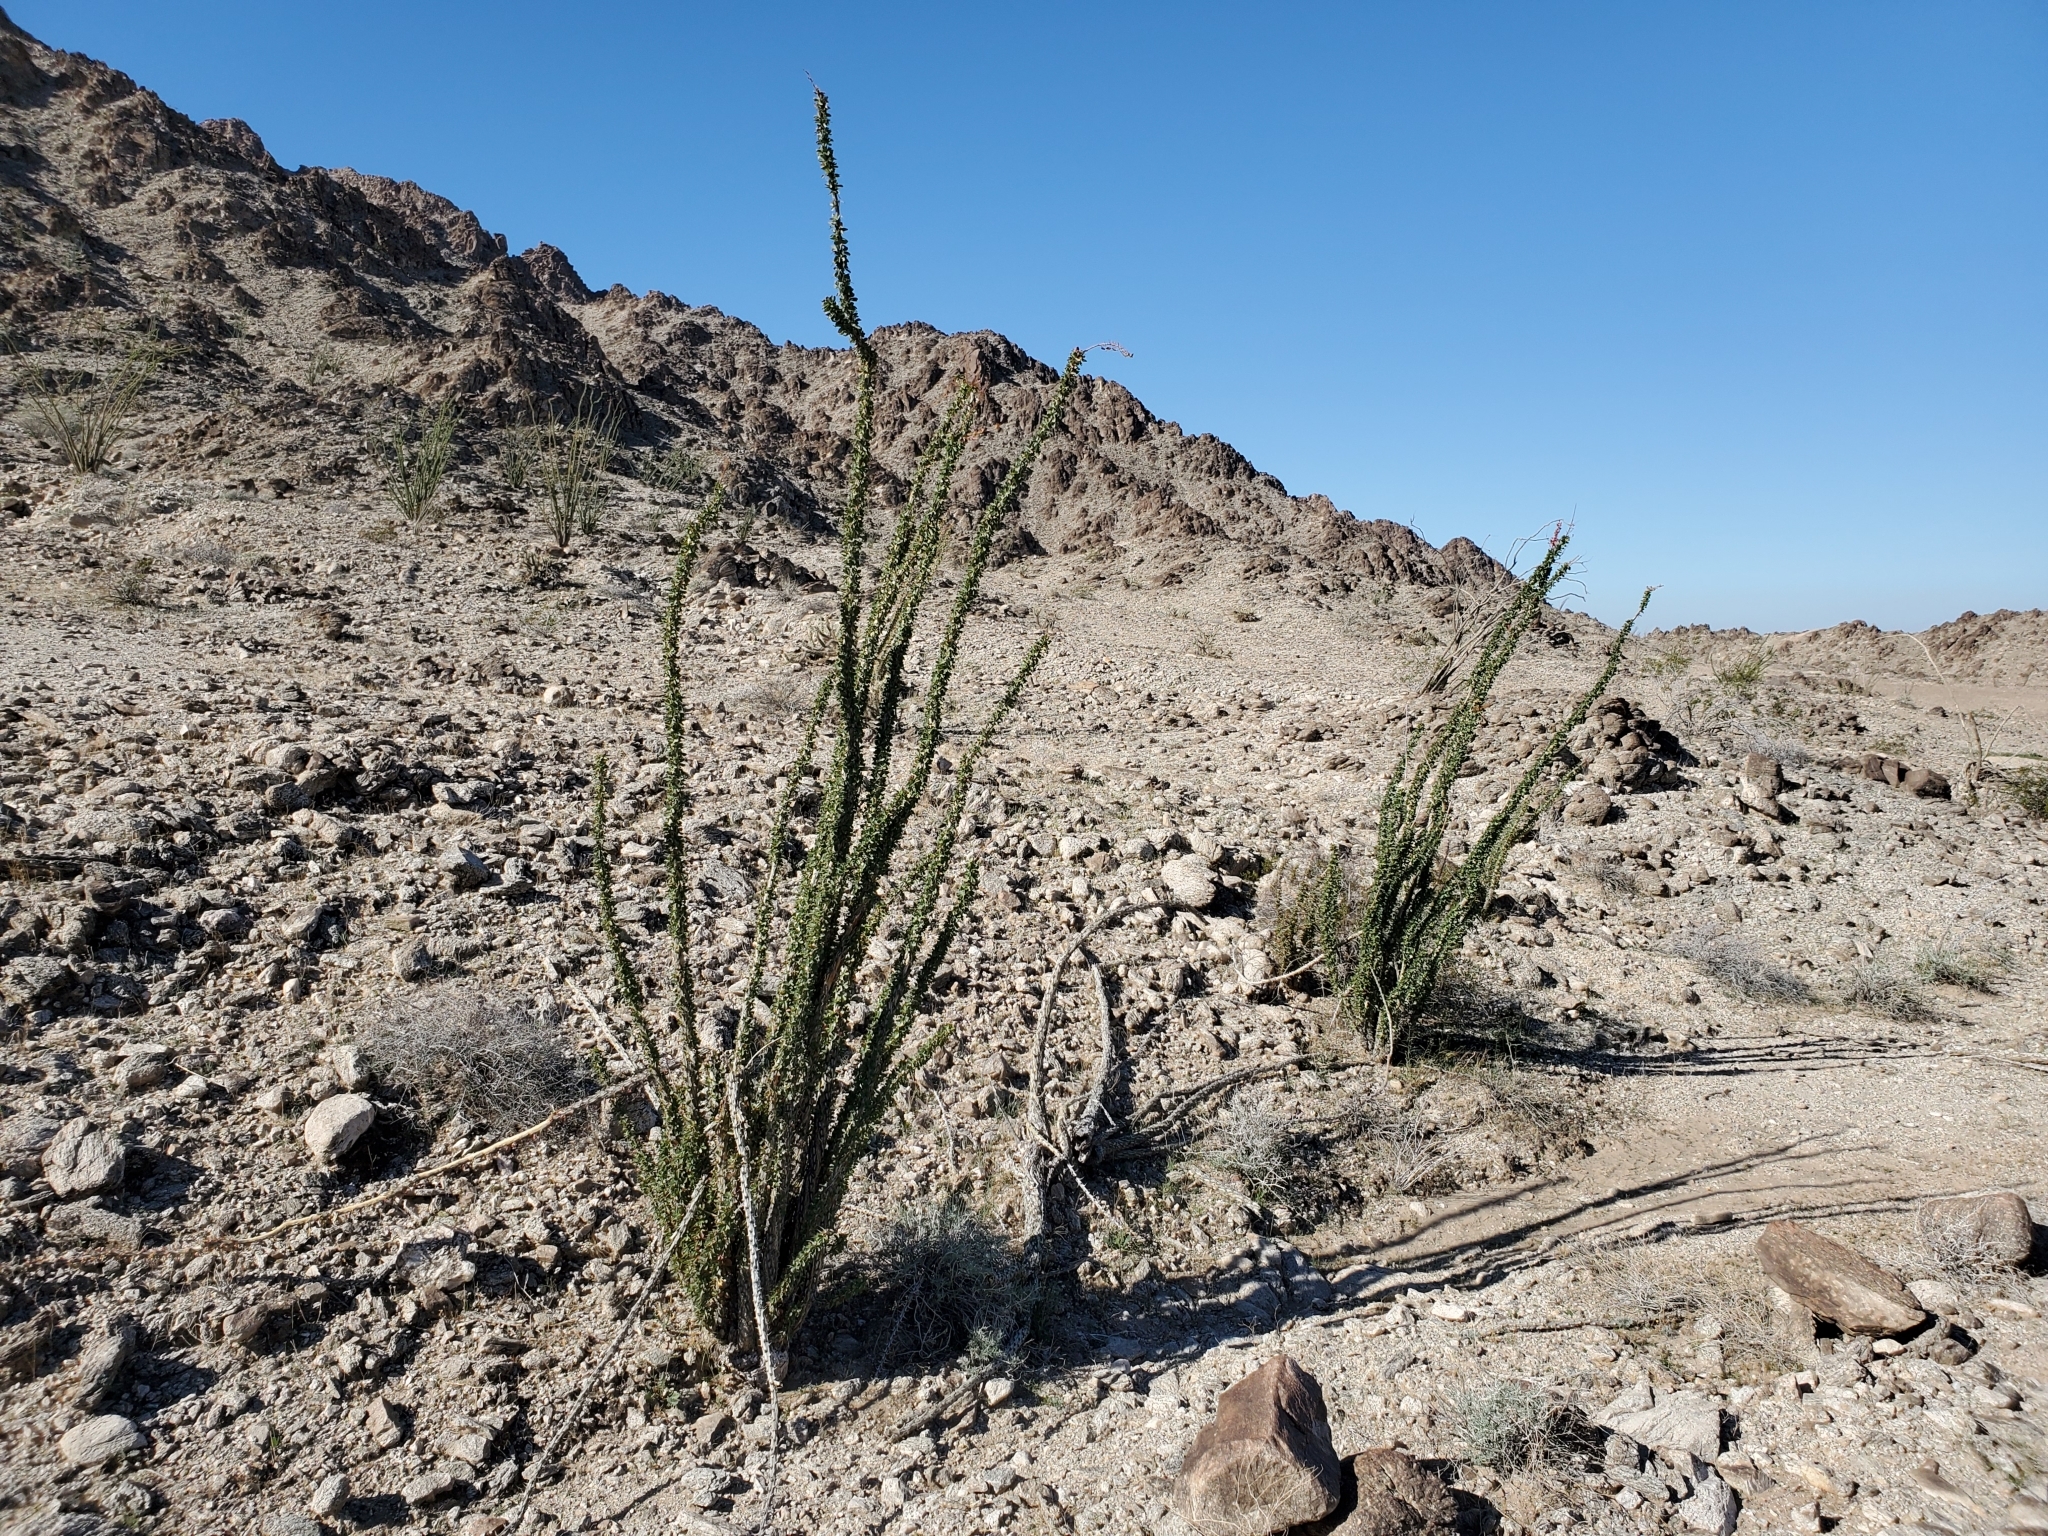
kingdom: Plantae
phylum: Tracheophyta
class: Magnoliopsida
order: Ericales
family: Fouquieriaceae
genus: Fouquieria
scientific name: Fouquieria splendens
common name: Vine-cactus
